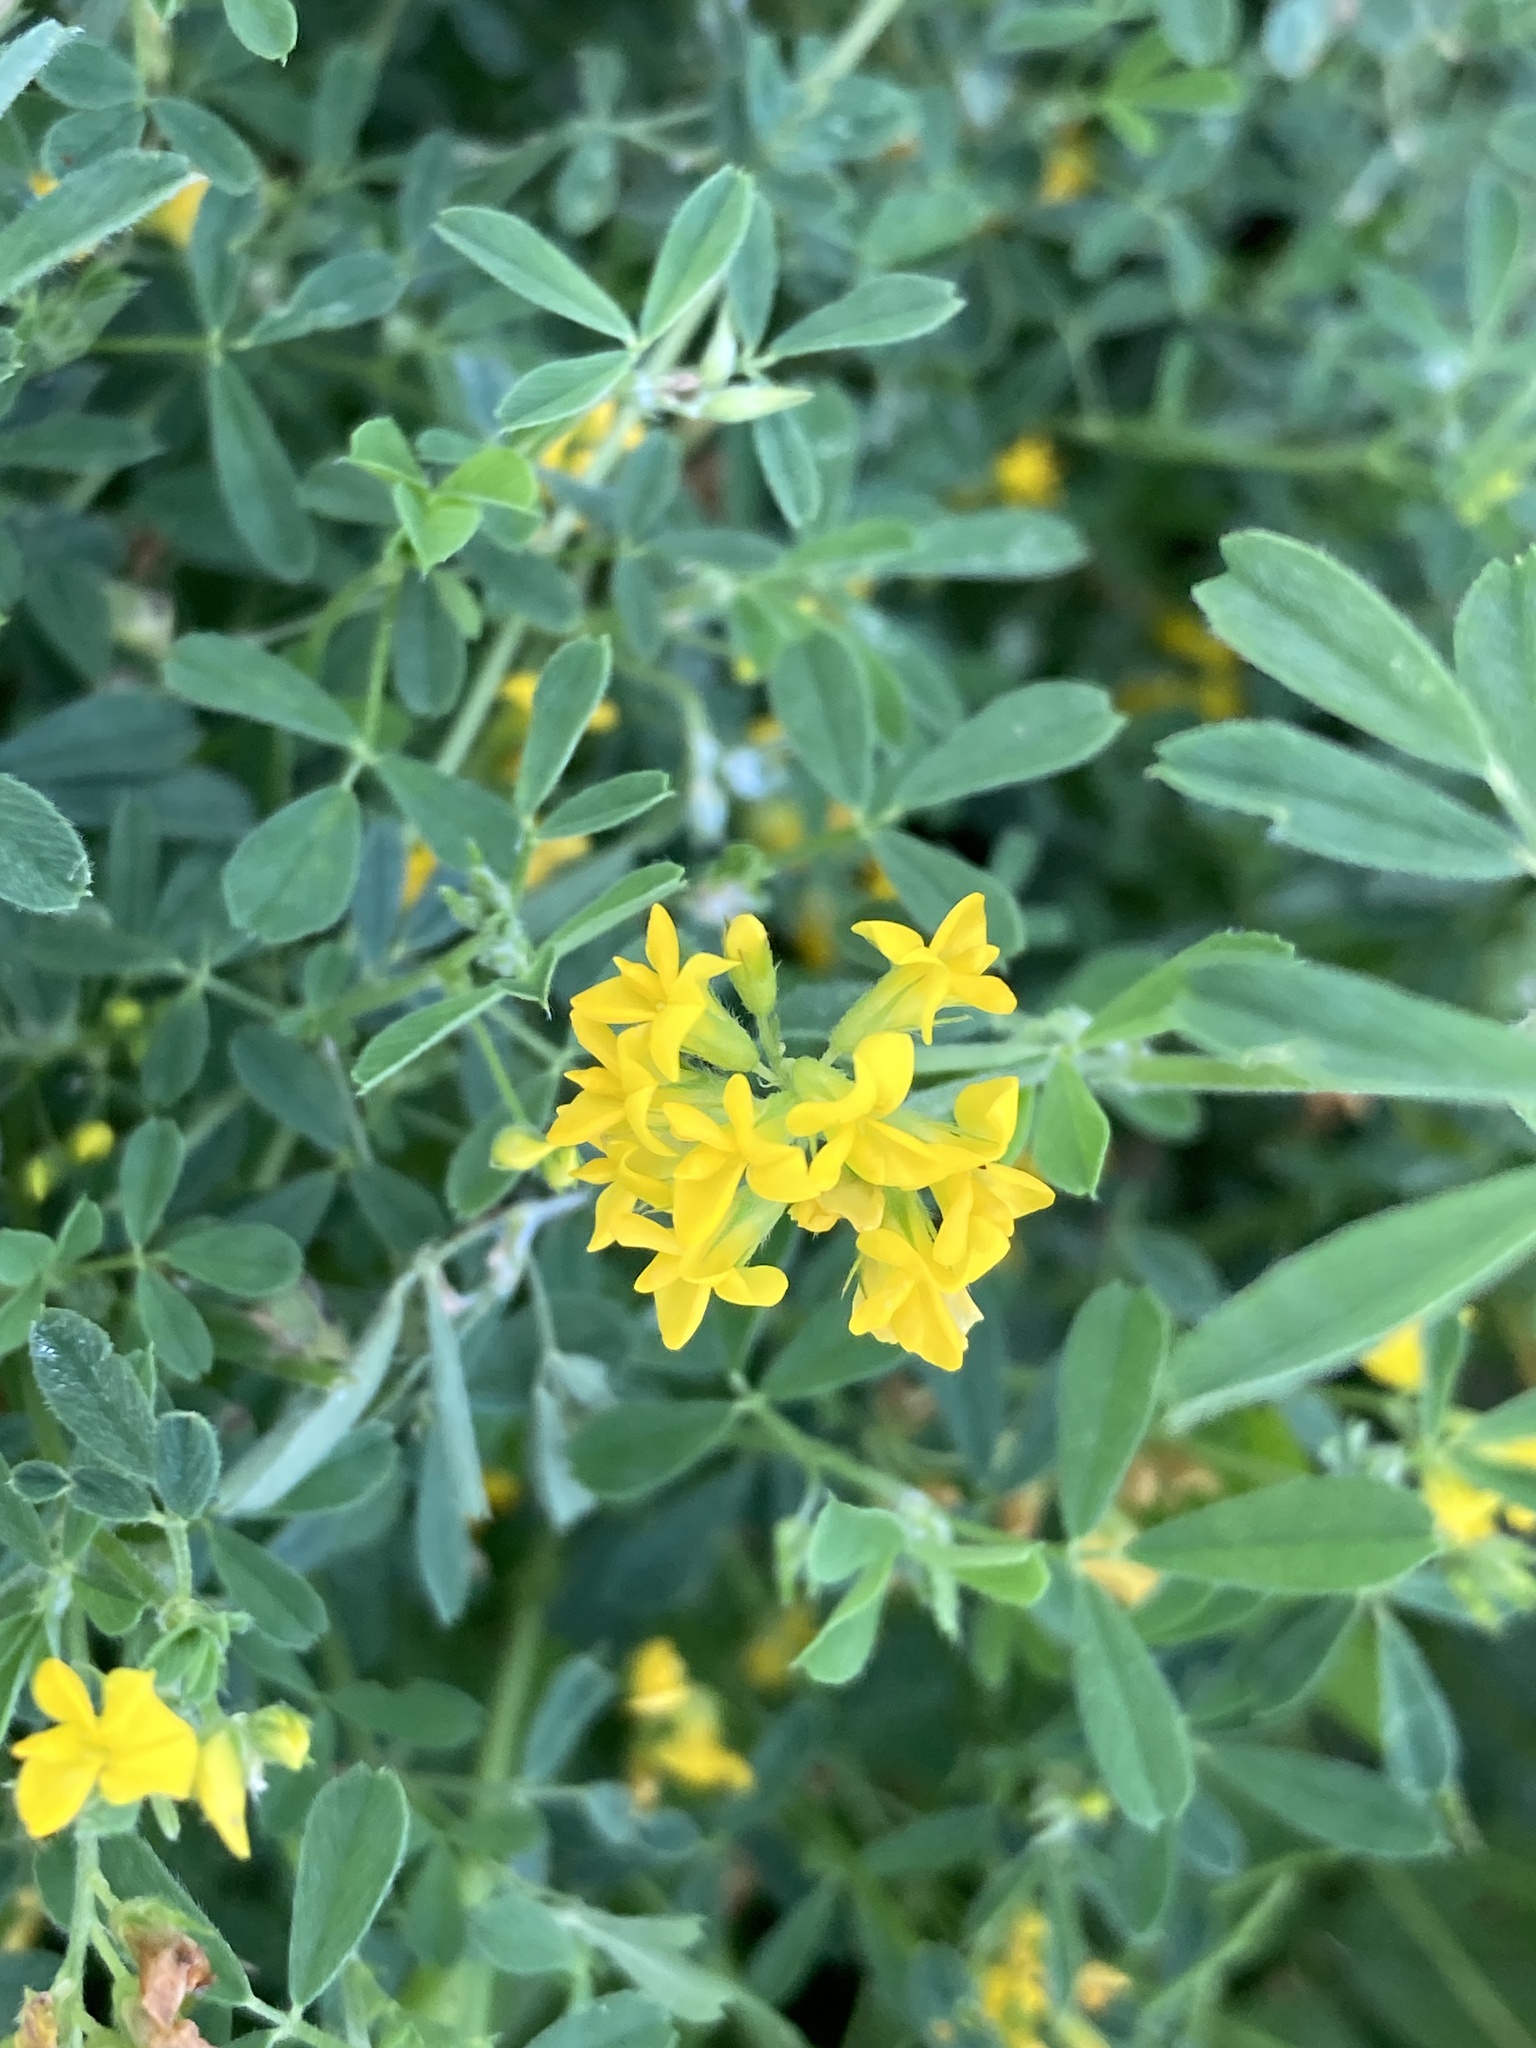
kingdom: Plantae
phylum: Tracheophyta
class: Magnoliopsida
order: Fabales
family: Fabaceae
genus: Medicago
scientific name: Medicago falcata
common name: Sickle medick
